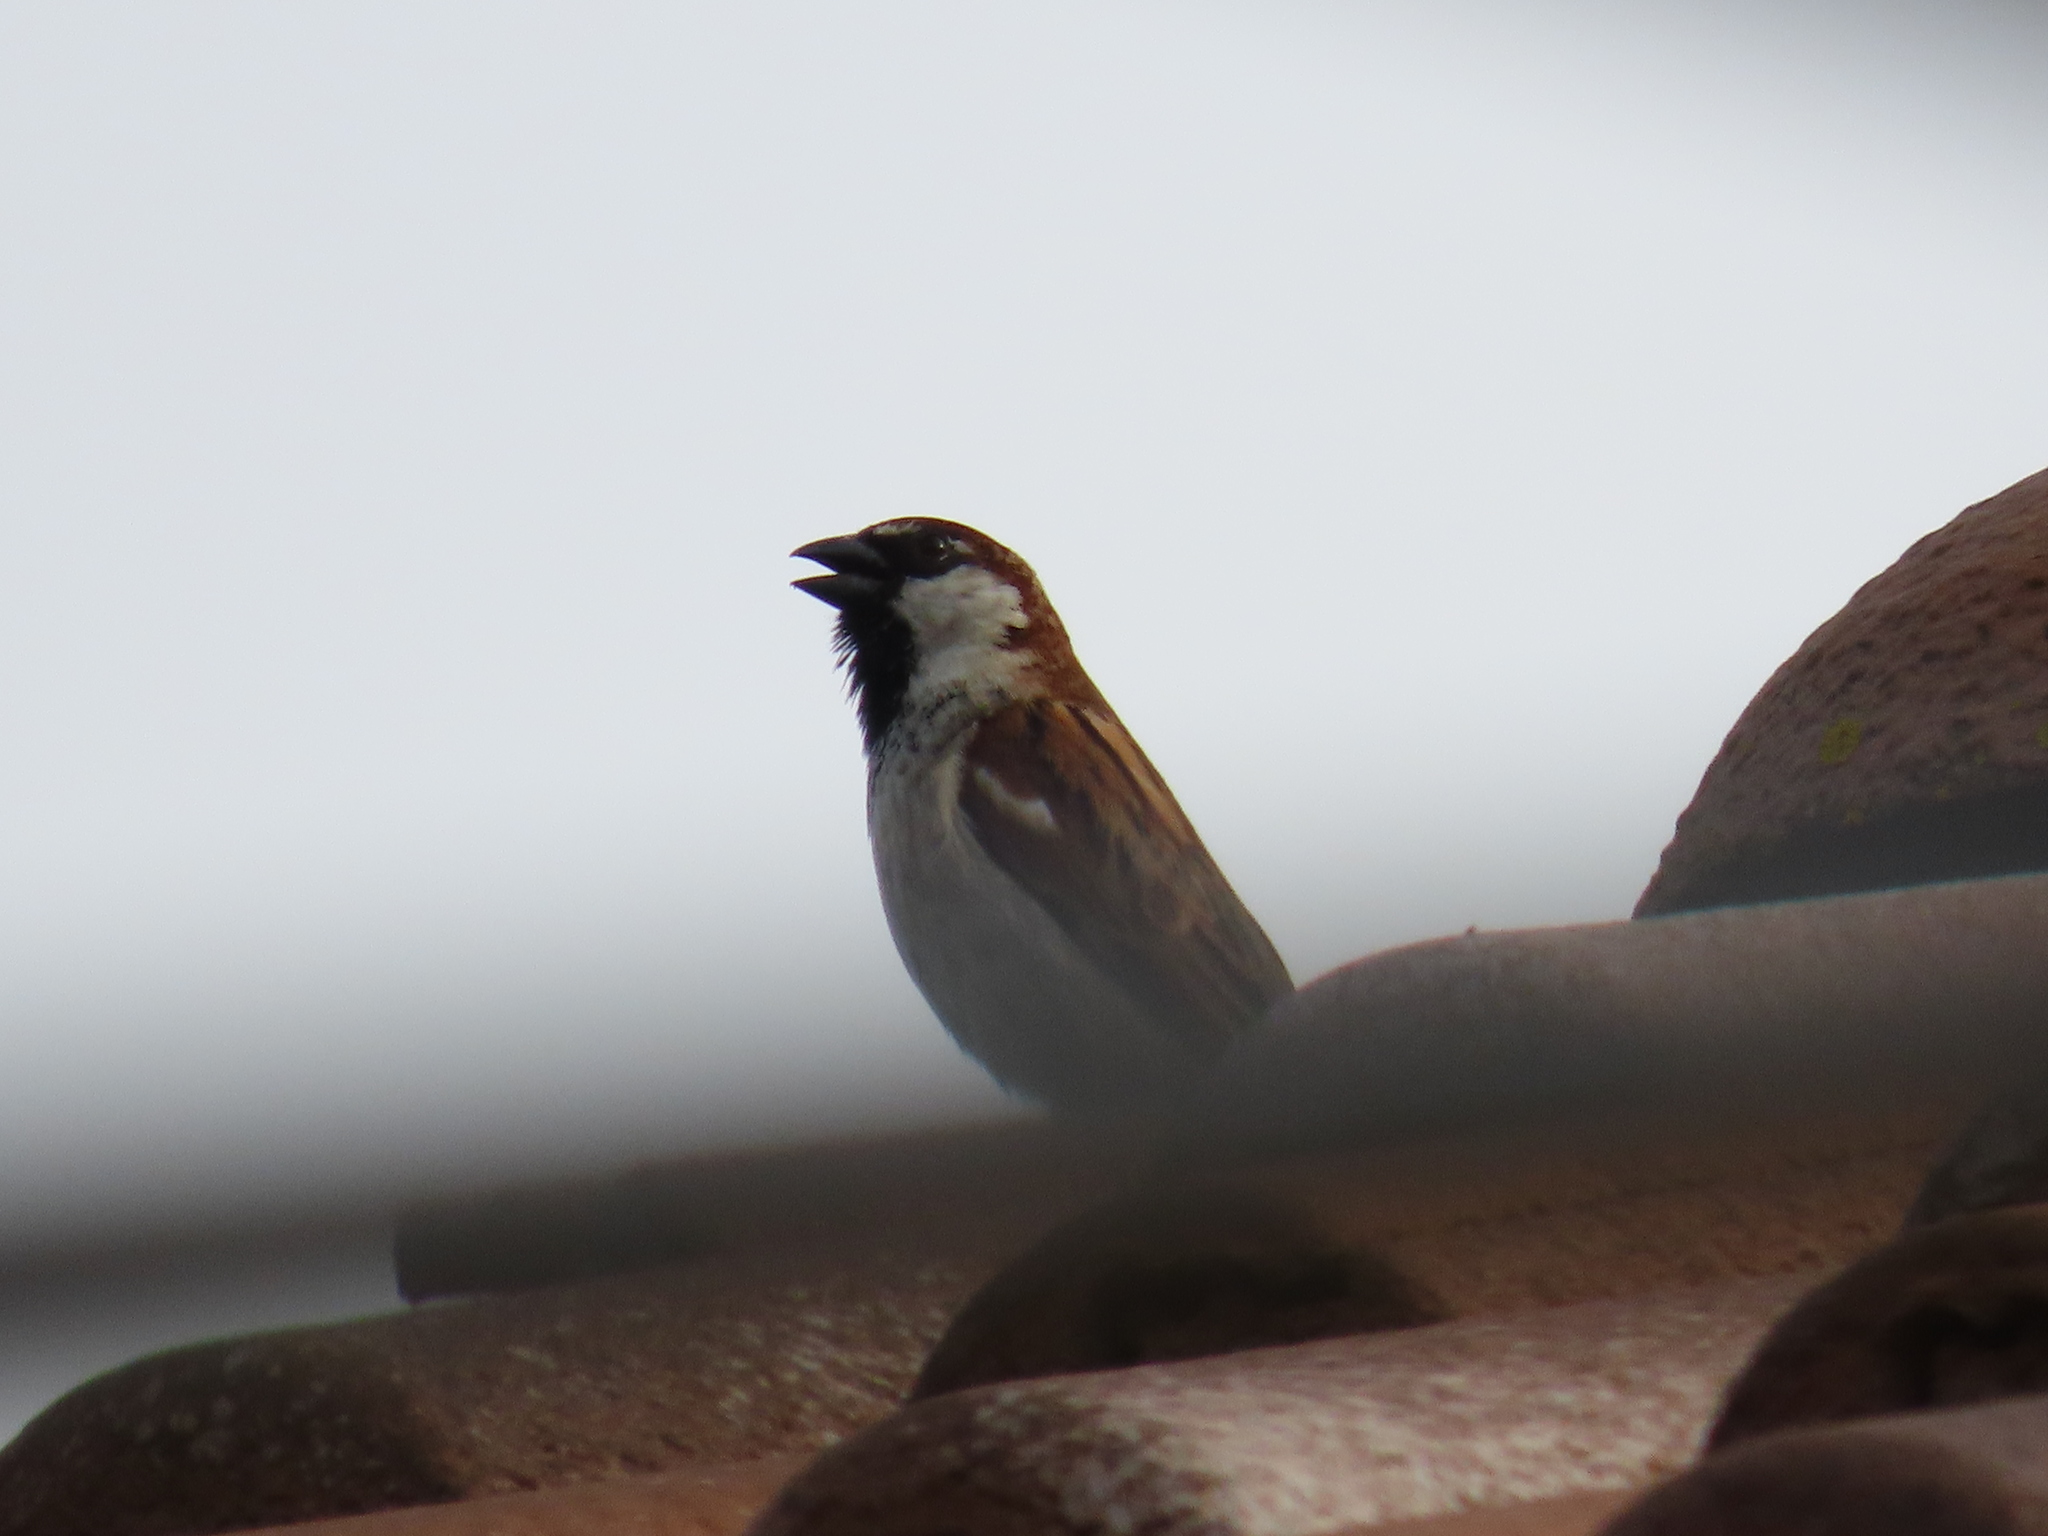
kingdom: Animalia
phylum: Chordata
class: Aves
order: Passeriformes
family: Passeridae
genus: Passer
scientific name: Passer italiae
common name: Italian sparrow
